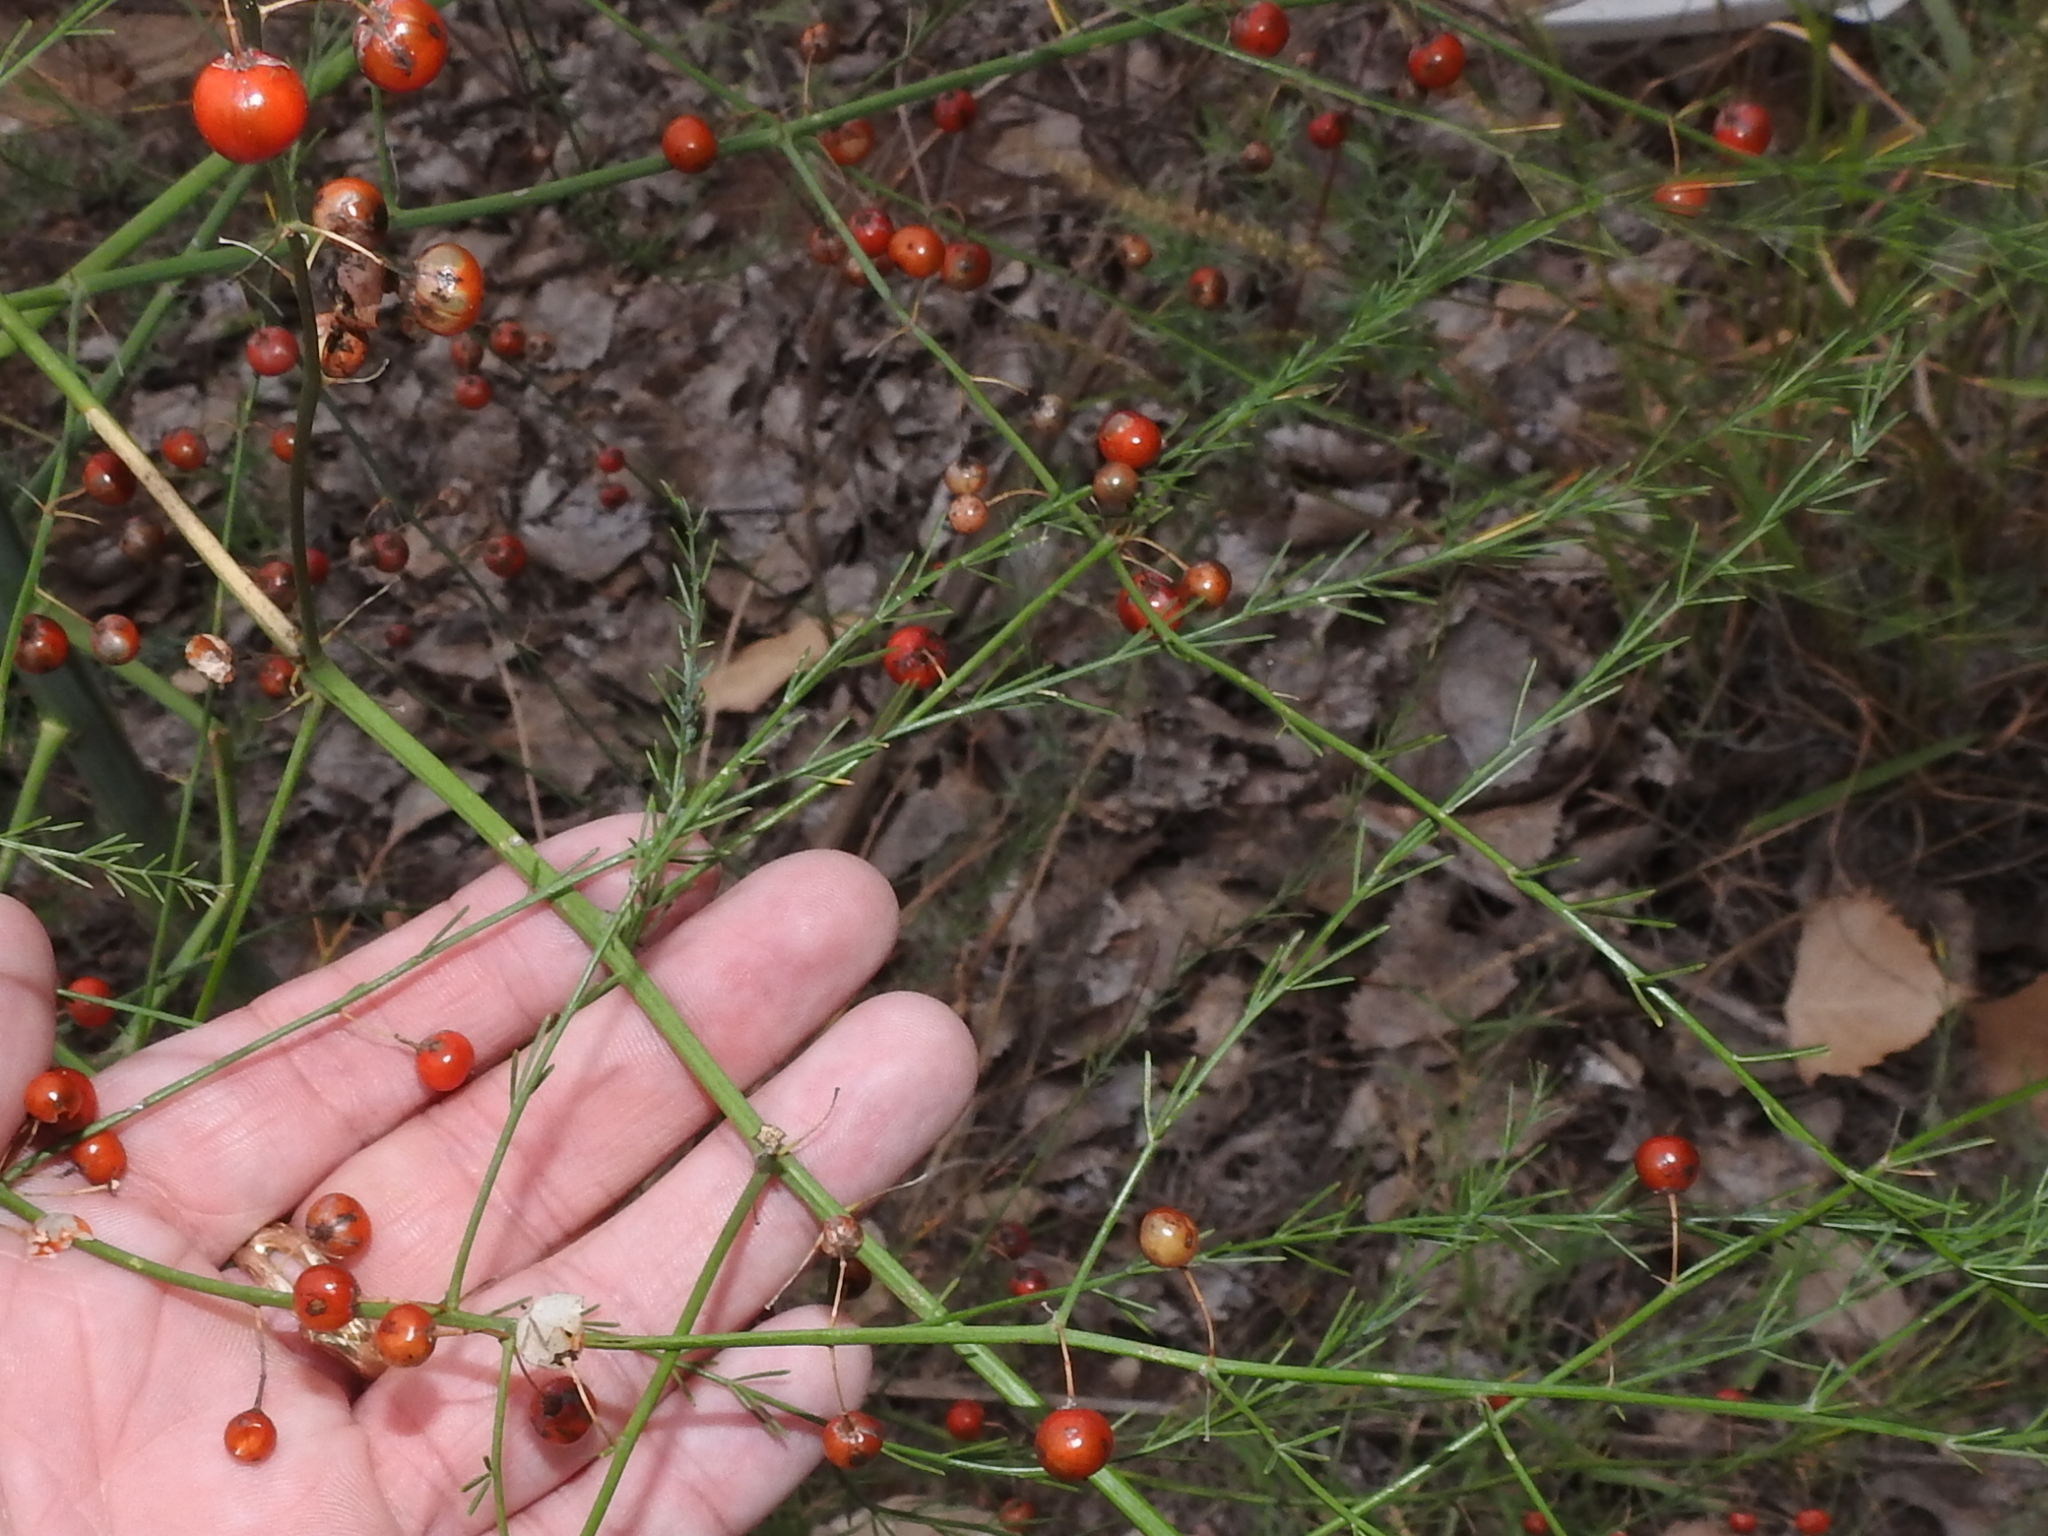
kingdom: Plantae
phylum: Tracheophyta
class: Liliopsida
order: Asparagales
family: Asparagaceae
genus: Asparagus
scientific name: Asparagus officinalis
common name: Garden asparagus
